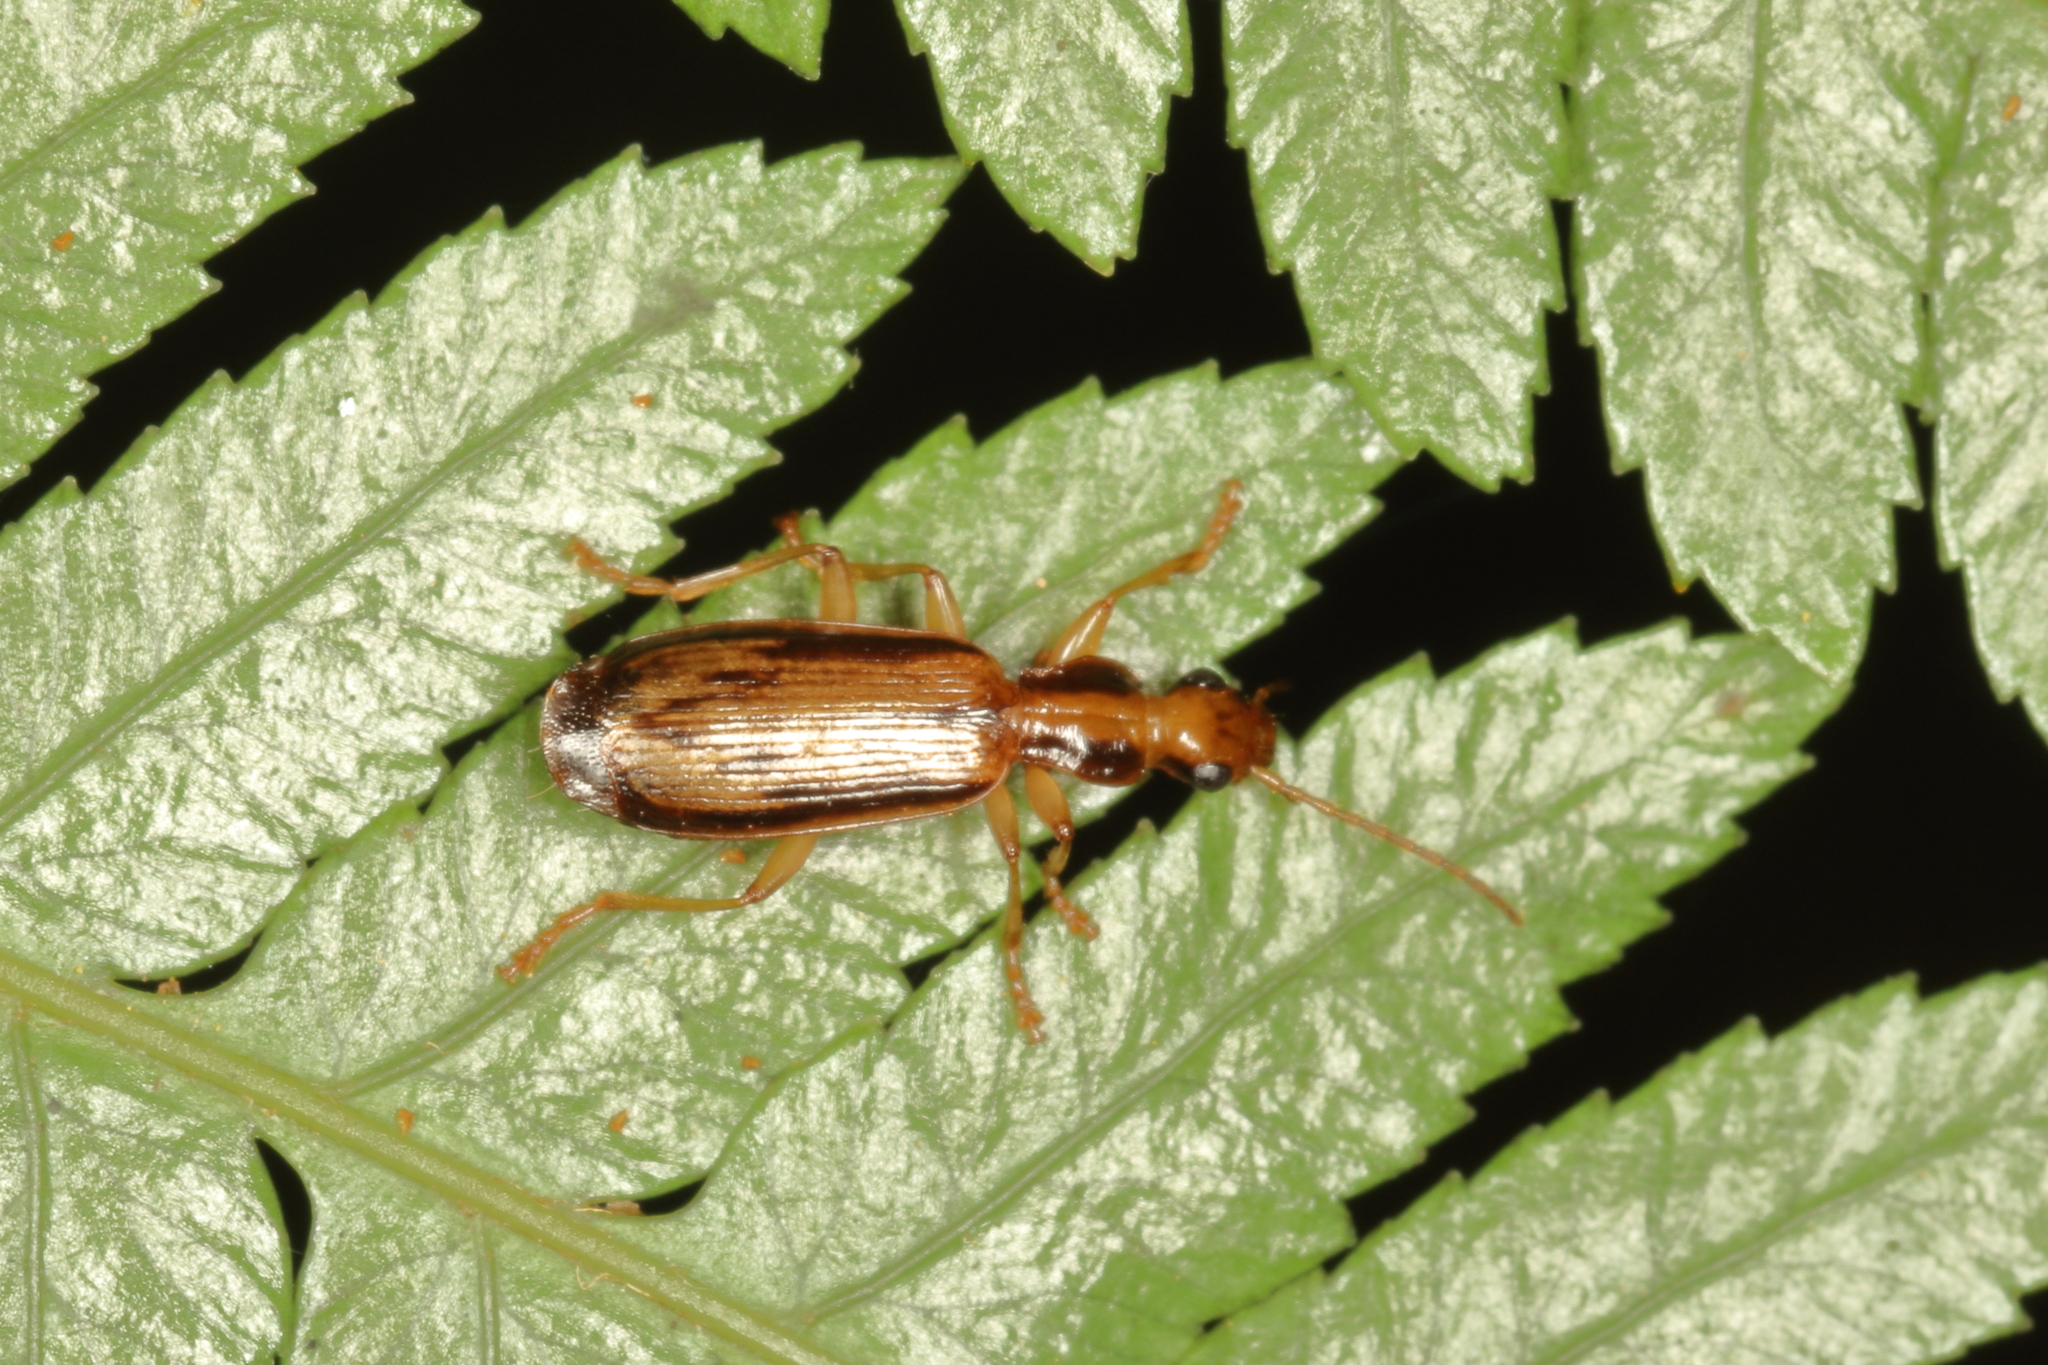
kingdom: Animalia
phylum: Arthropoda
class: Insecta
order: Coleoptera
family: Carabidae
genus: Demetrida
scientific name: Demetrida lineella
